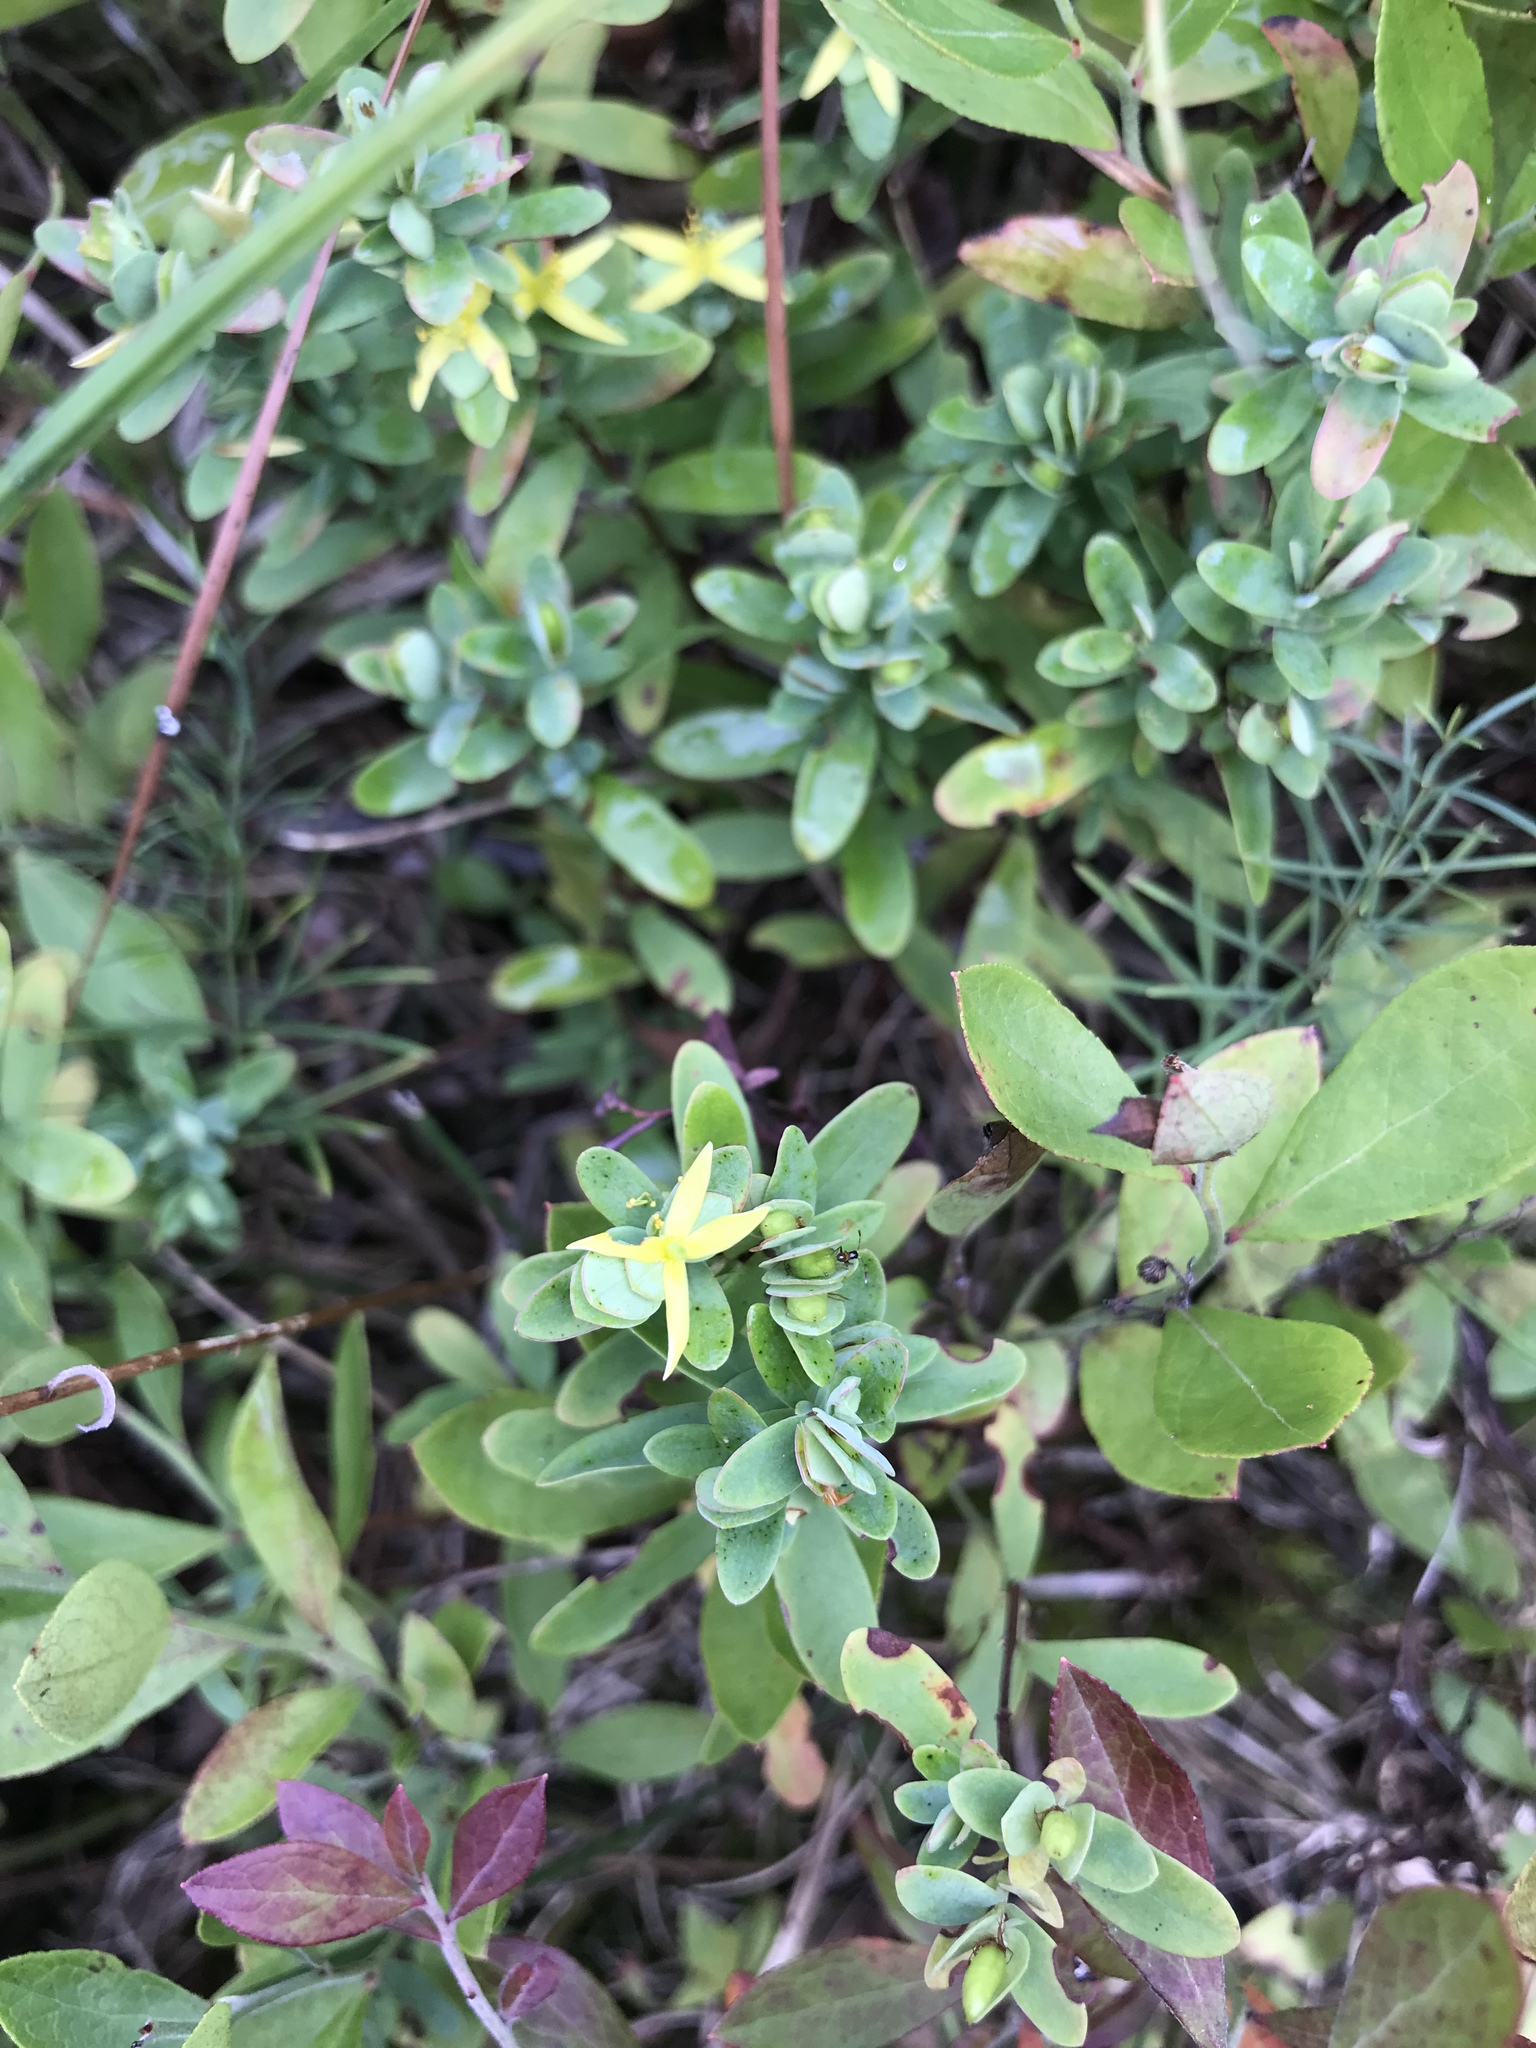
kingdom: Plantae
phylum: Tracheophyta
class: Magnoliopsida
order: Malpighiales
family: Hypericaceae
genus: Hypericum
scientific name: Hypericum hypericoides
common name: St. andrew's cross
